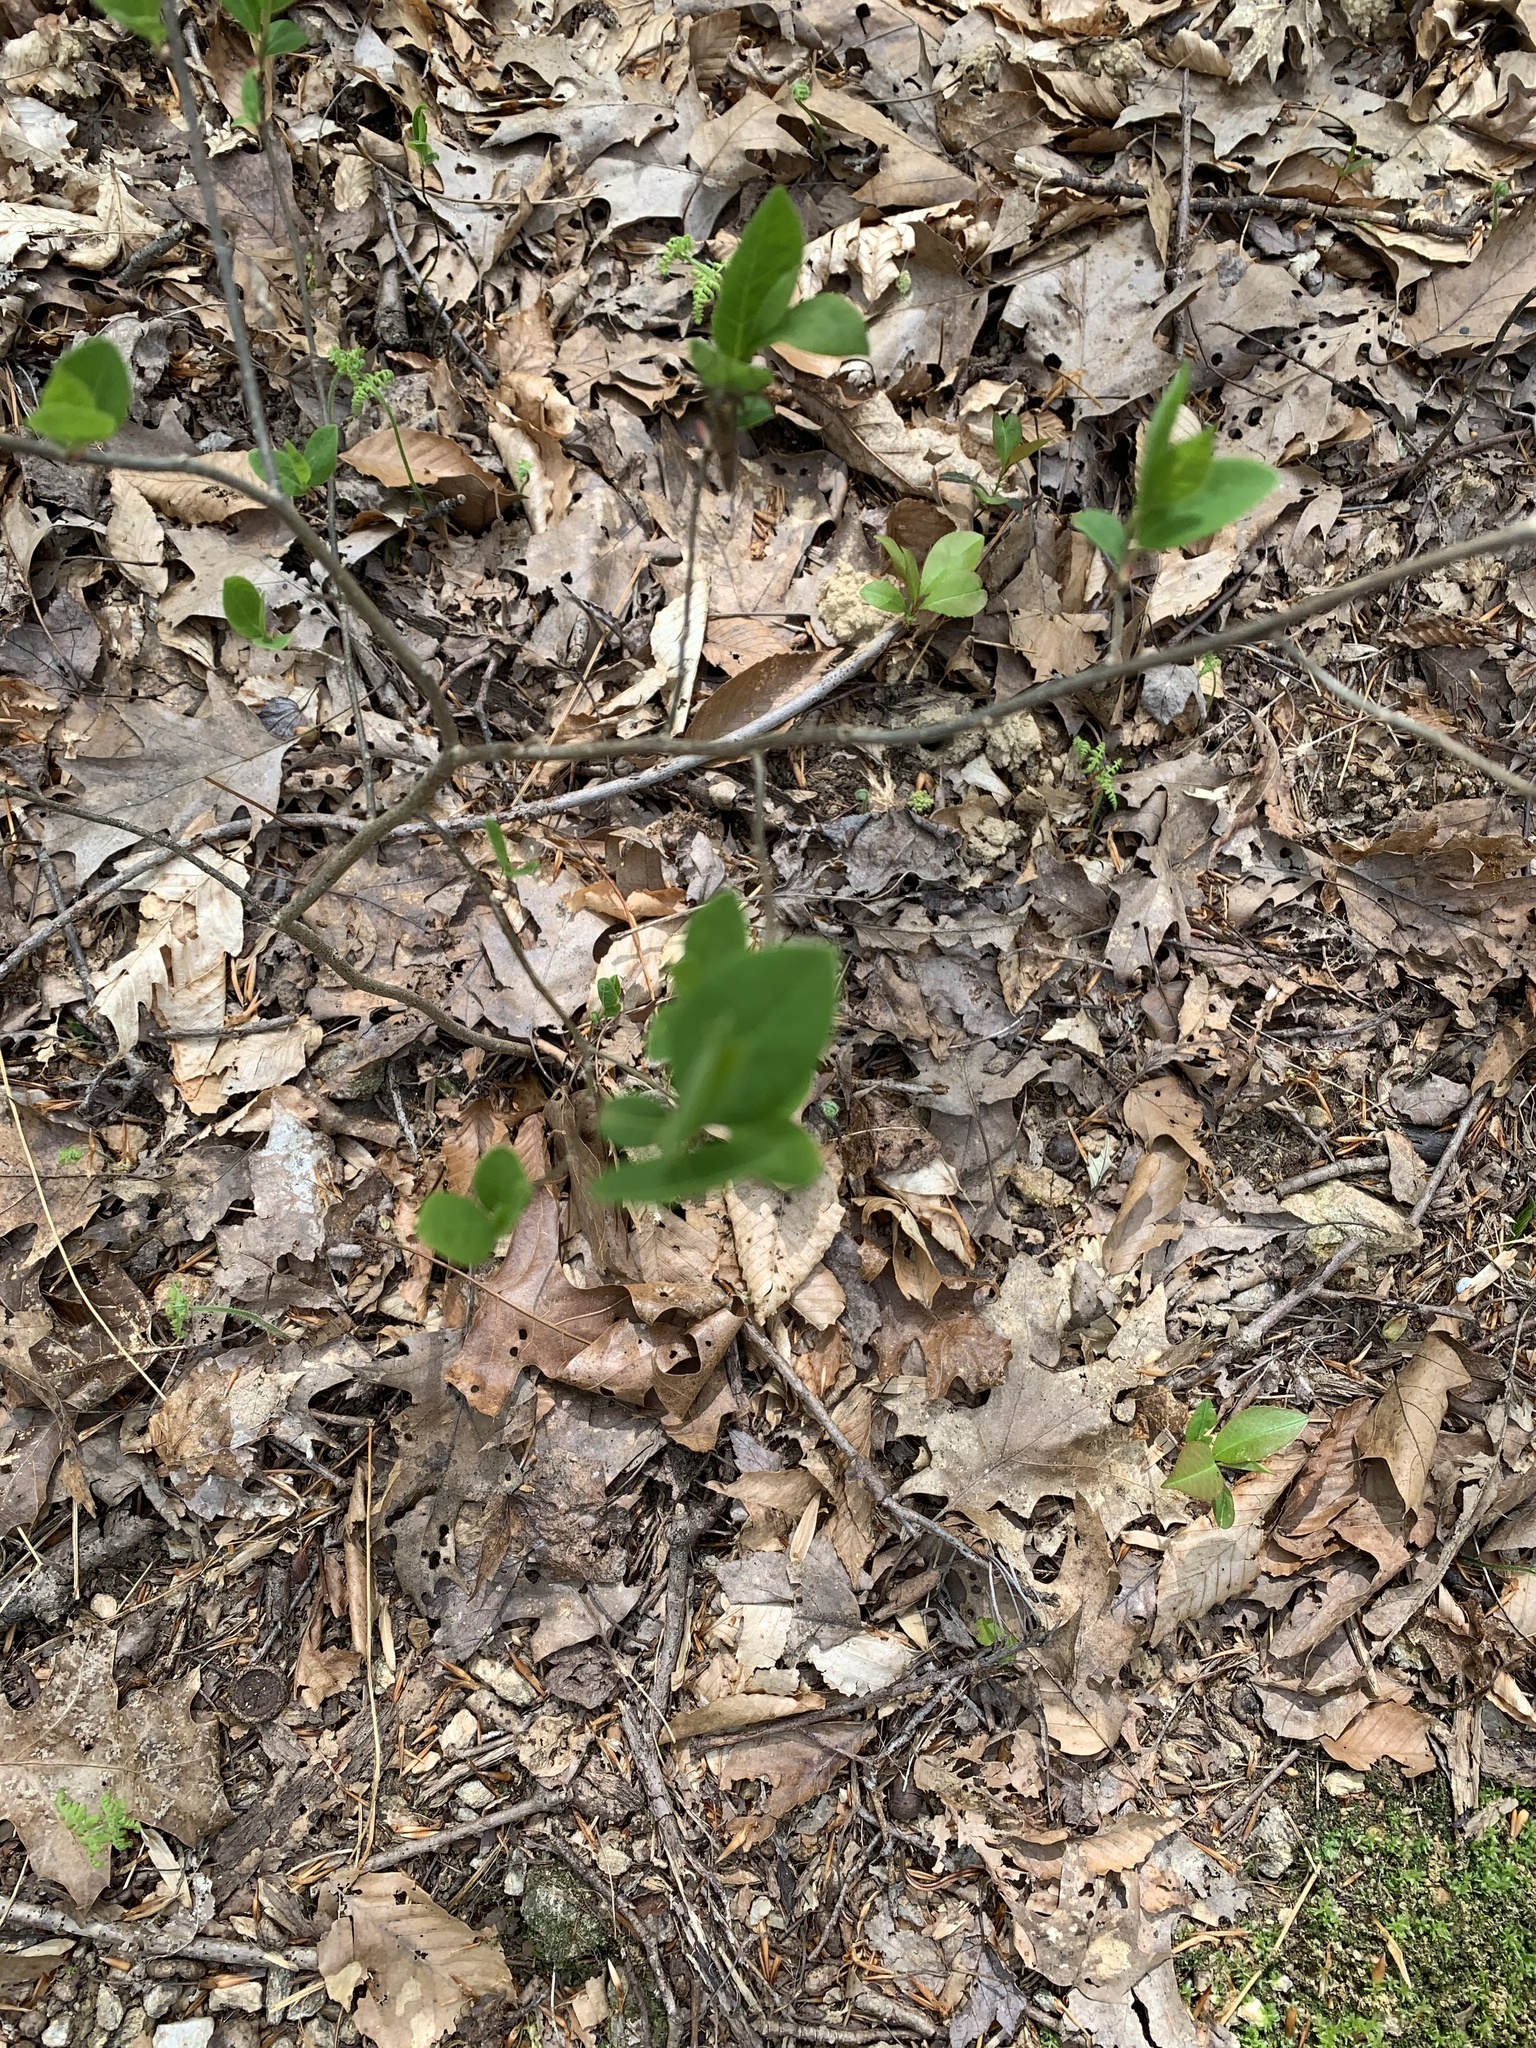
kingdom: Plantae
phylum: Tracheophyta
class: Magnoliopsida
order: Laurales
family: Lauraceae
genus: Lindera
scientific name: Lindera benzoin
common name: Spicebush
